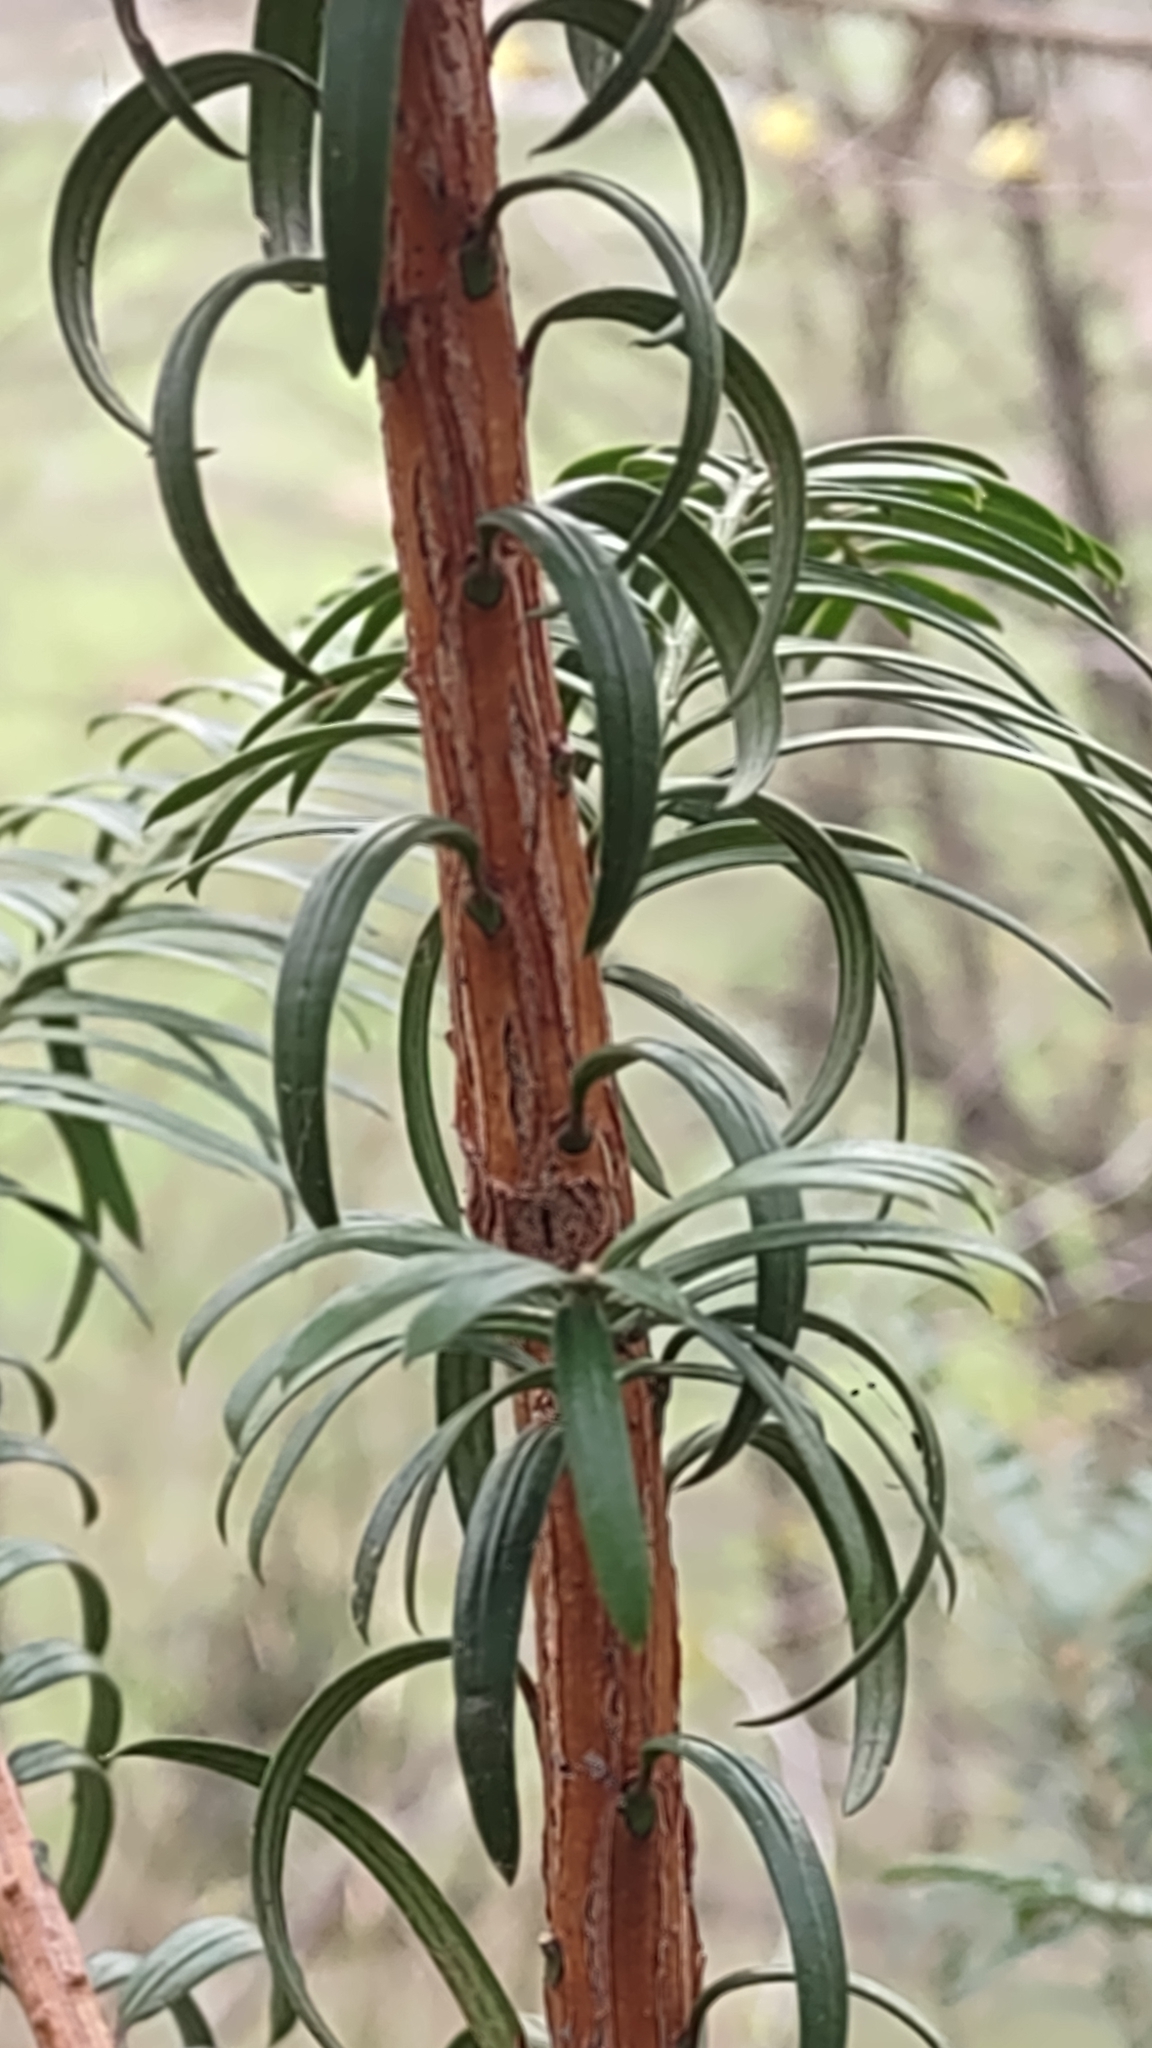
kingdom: Plantae
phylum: Tracheophyta
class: Pinopsida
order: Pinales
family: Taxaceae
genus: Taxus
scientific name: Taxus baccata
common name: Yew
